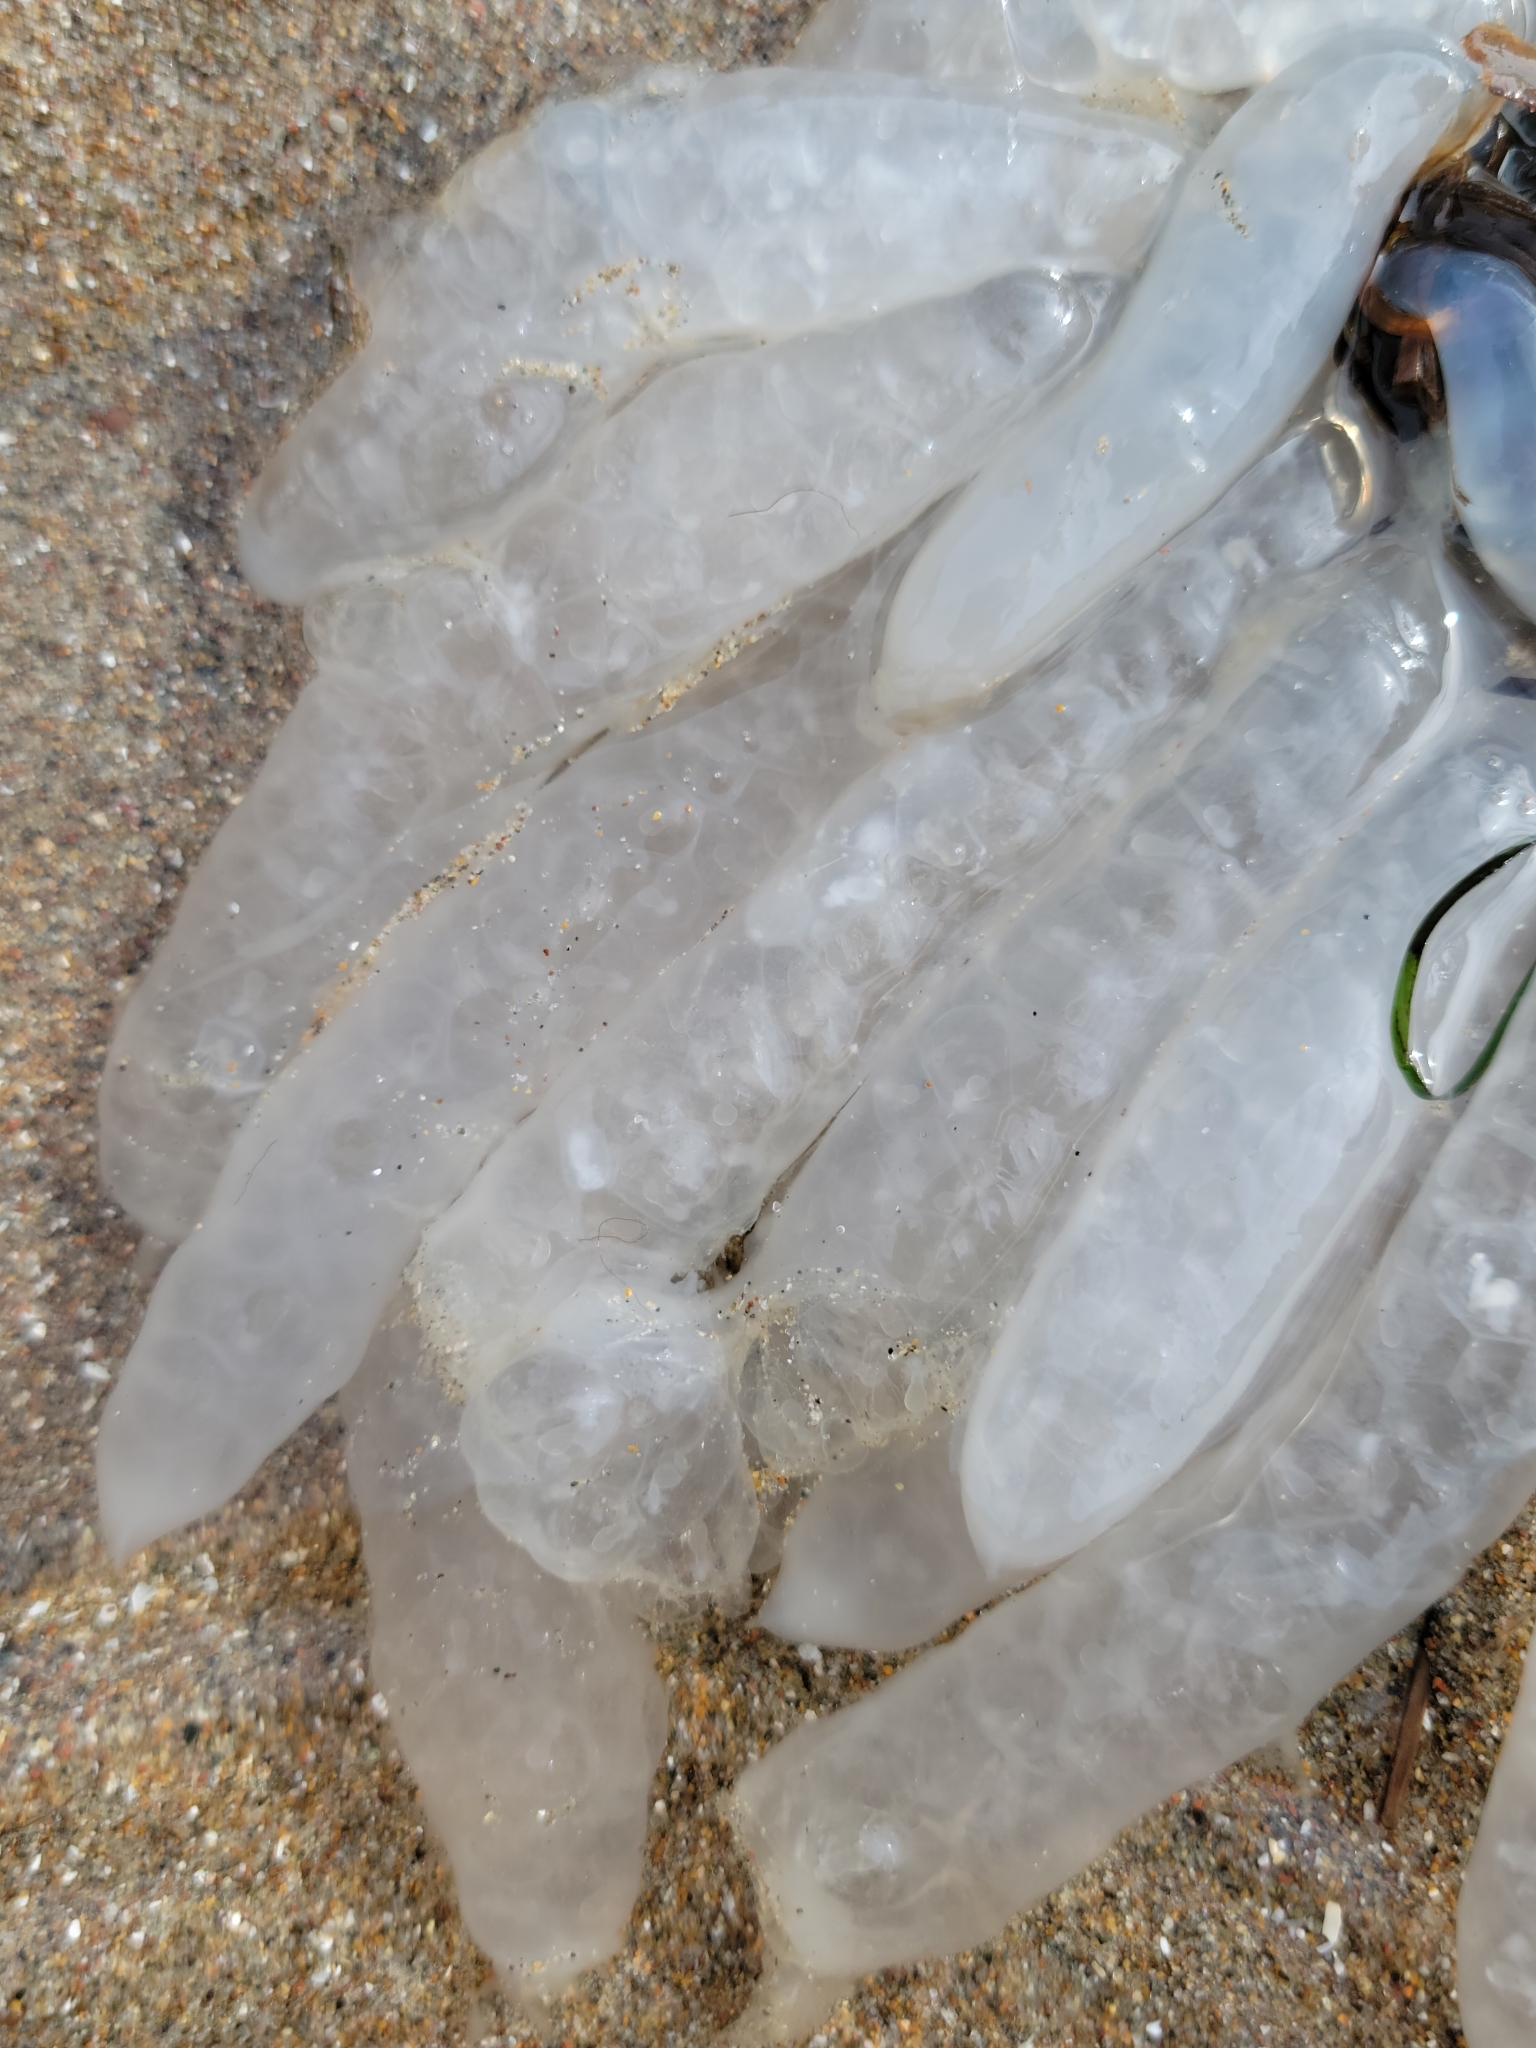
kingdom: Animalia
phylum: Mollusca
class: Cephalopoda
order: Myopsida
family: Loliginidae
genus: Doryteuthis
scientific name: Doryteuthis opalescens
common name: Opalescent inshore squid
